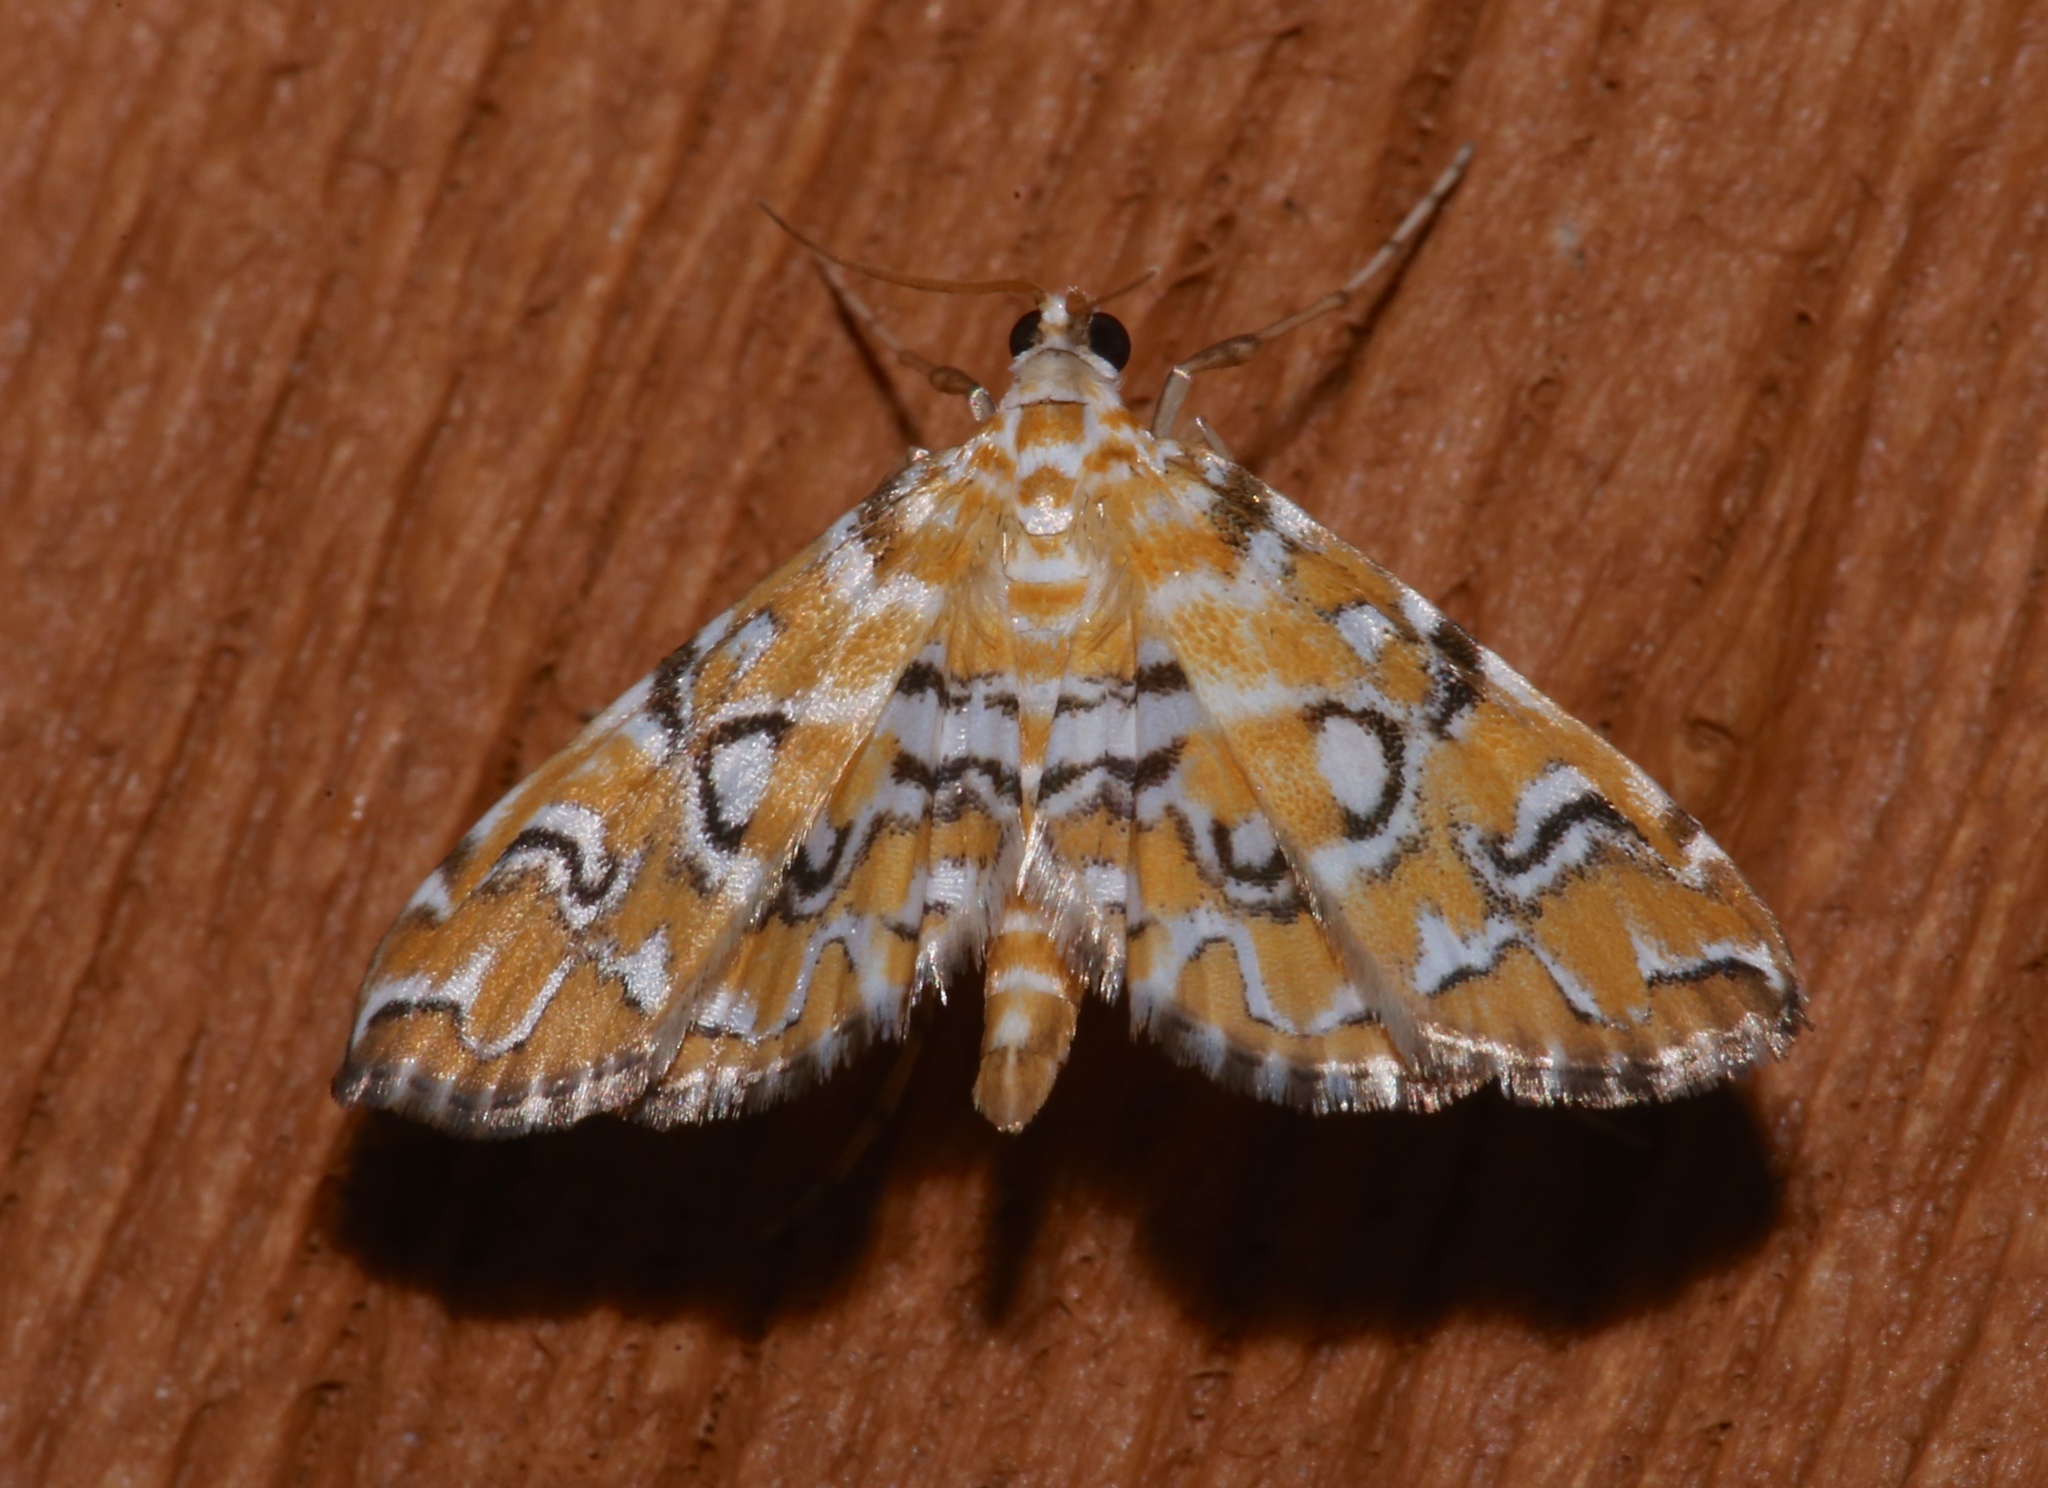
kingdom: Animalia
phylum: Arthropoda
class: Insecta
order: Lepidoptera
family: Crambidae
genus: Elophila
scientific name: Elophila icciusalis
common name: Pondside pyralid moth
